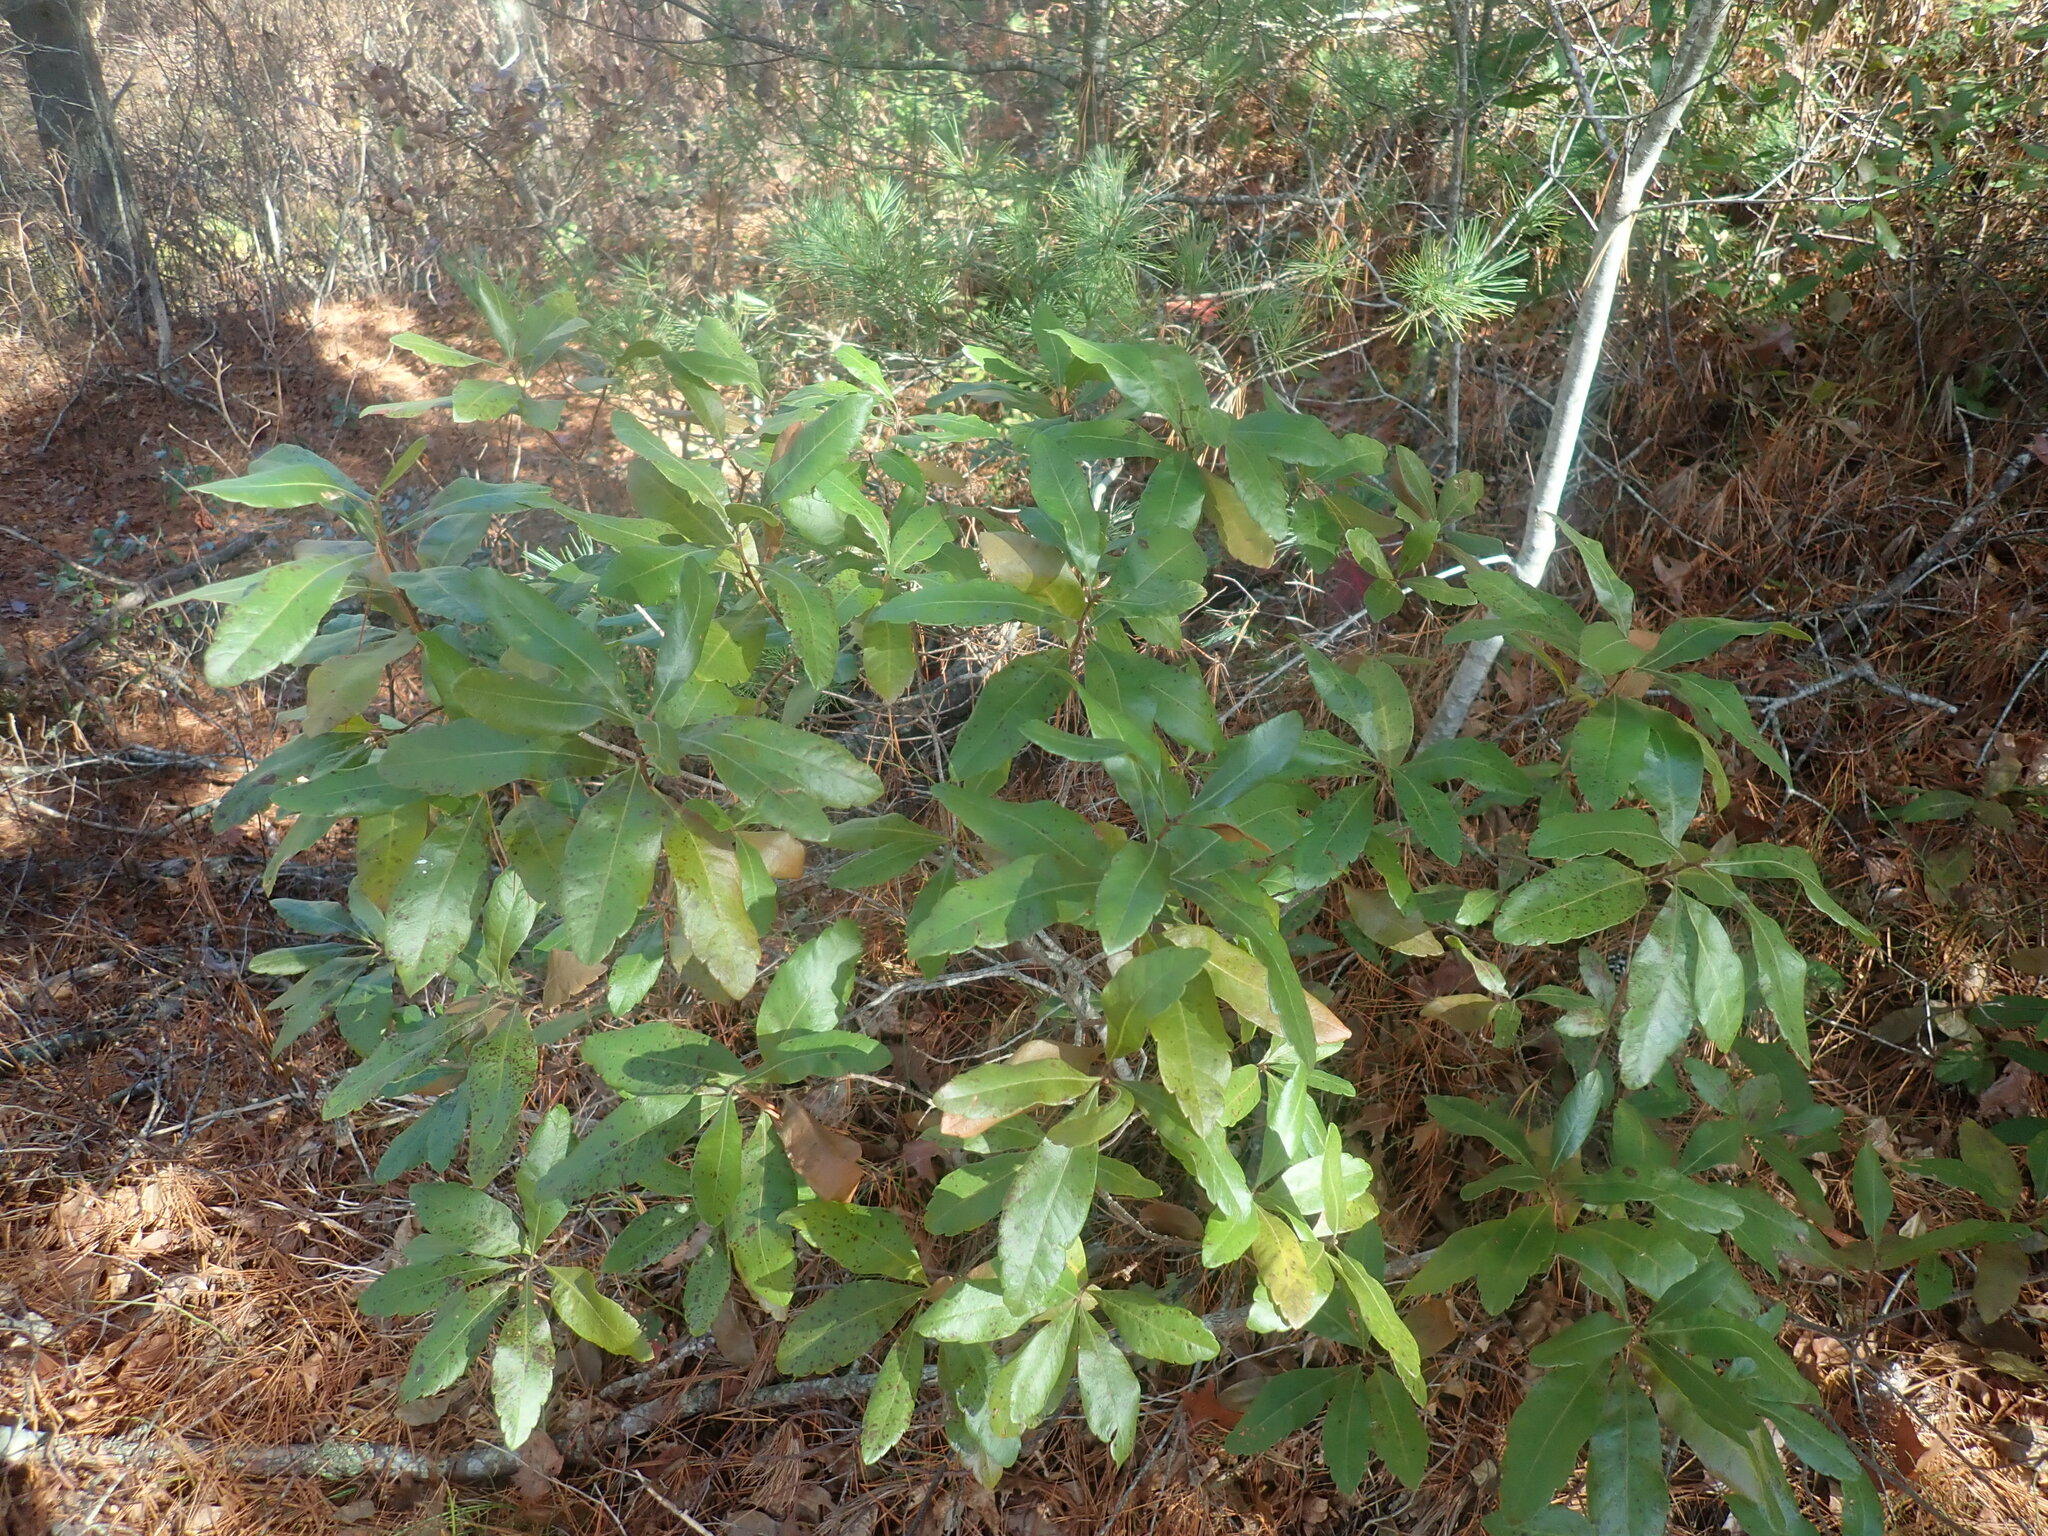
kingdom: Plantae
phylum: Tracheophyta
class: Magnoliopsida
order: Fagales
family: Myricaceae
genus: Morella
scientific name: Morella pensylvanica
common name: Northern bayberry
